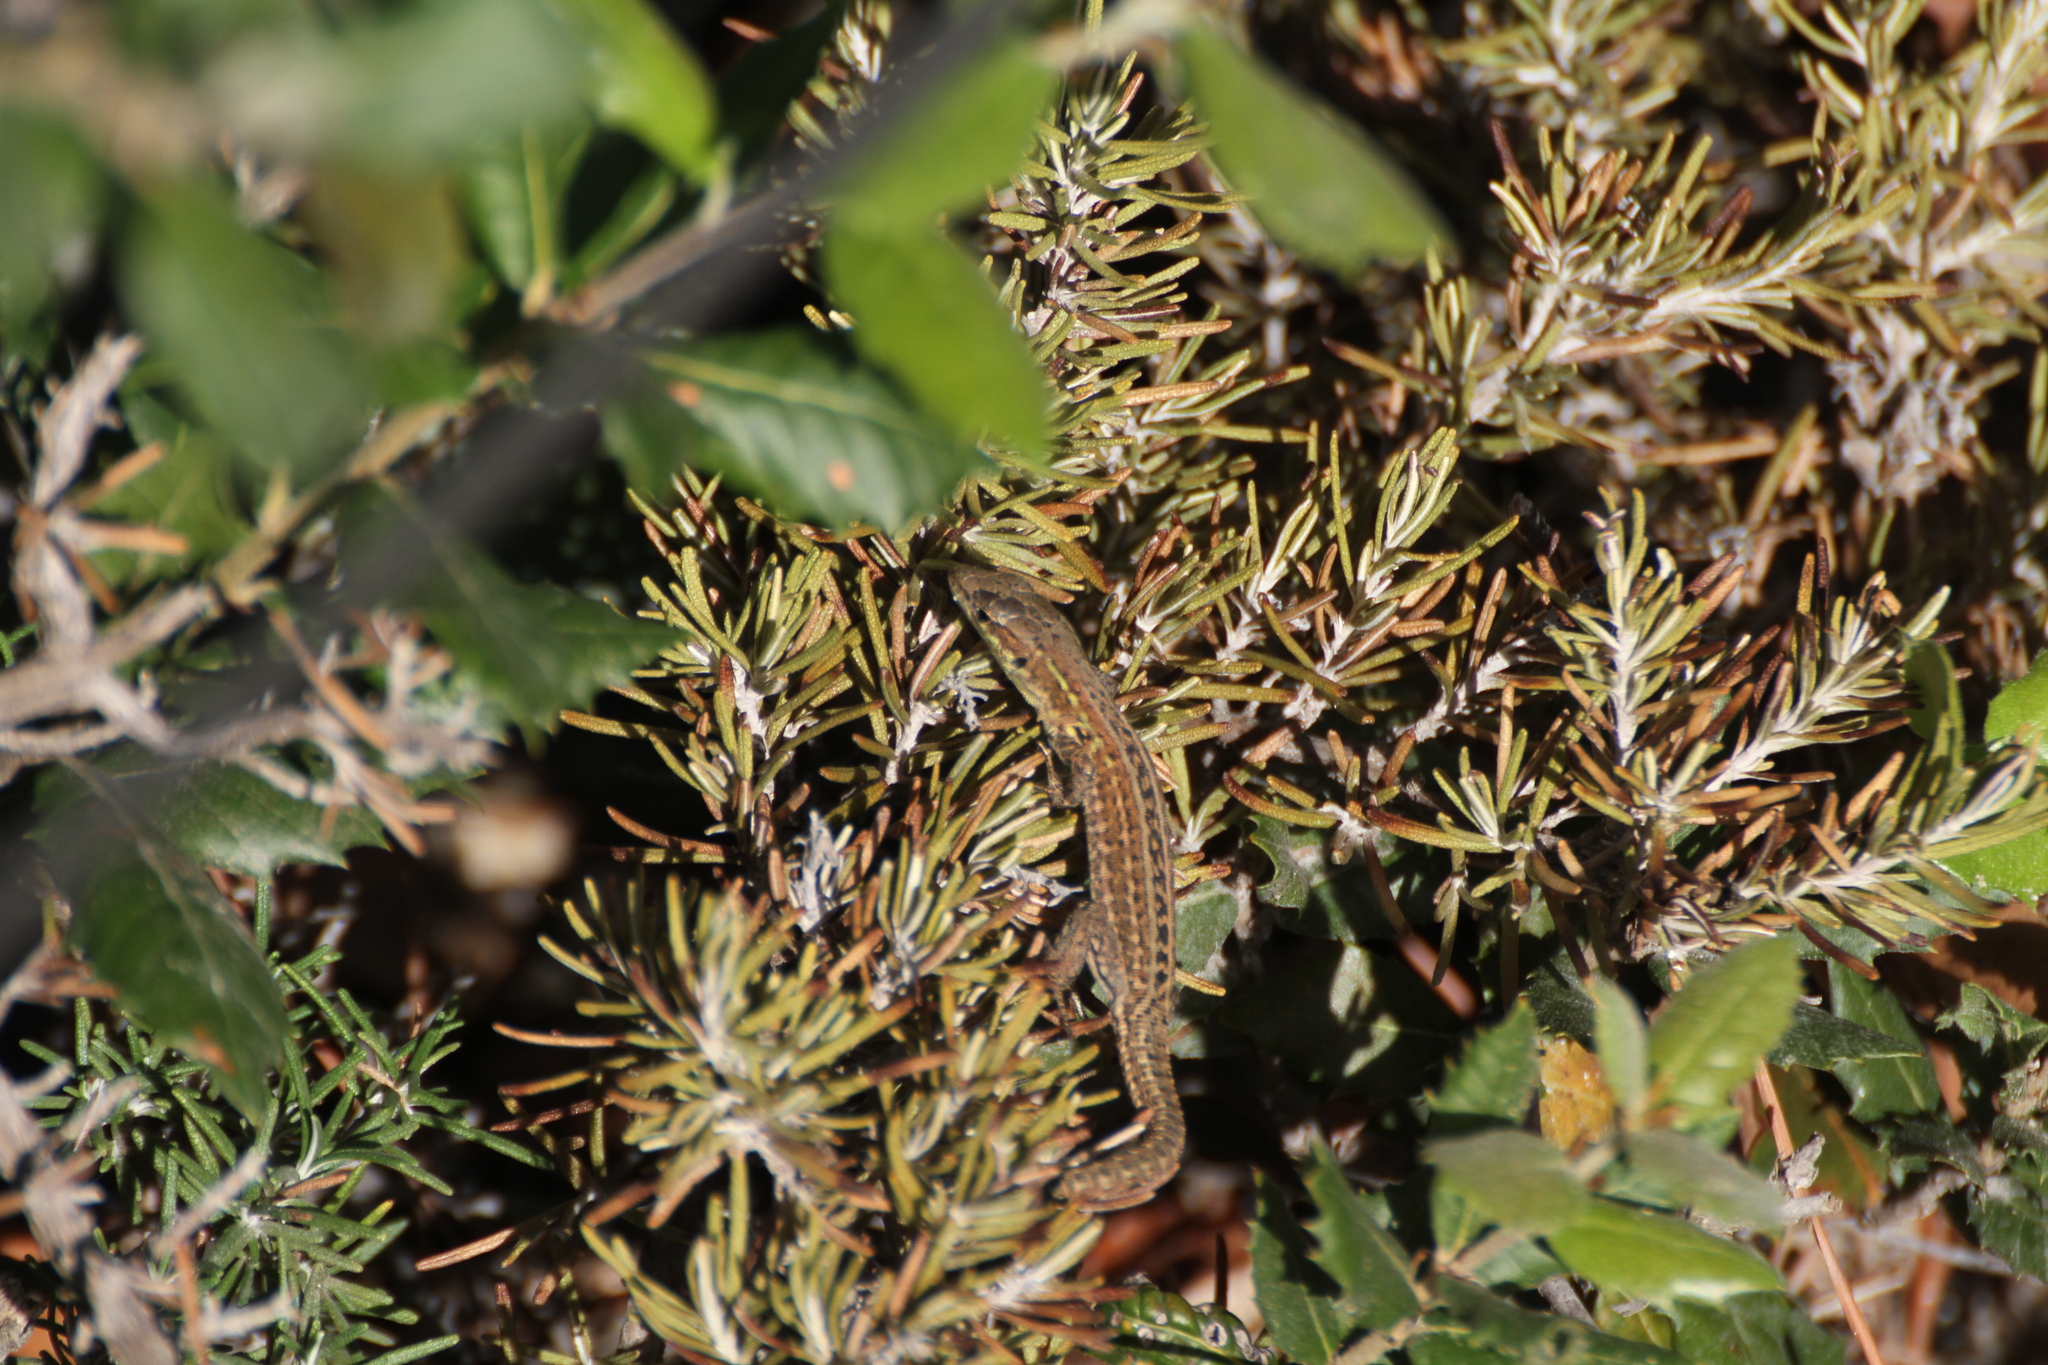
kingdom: Animalia
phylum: Chordata
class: Squamata
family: Lacertidae
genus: Podarcis
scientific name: Podarcis siculus
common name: Italian wall lizard
